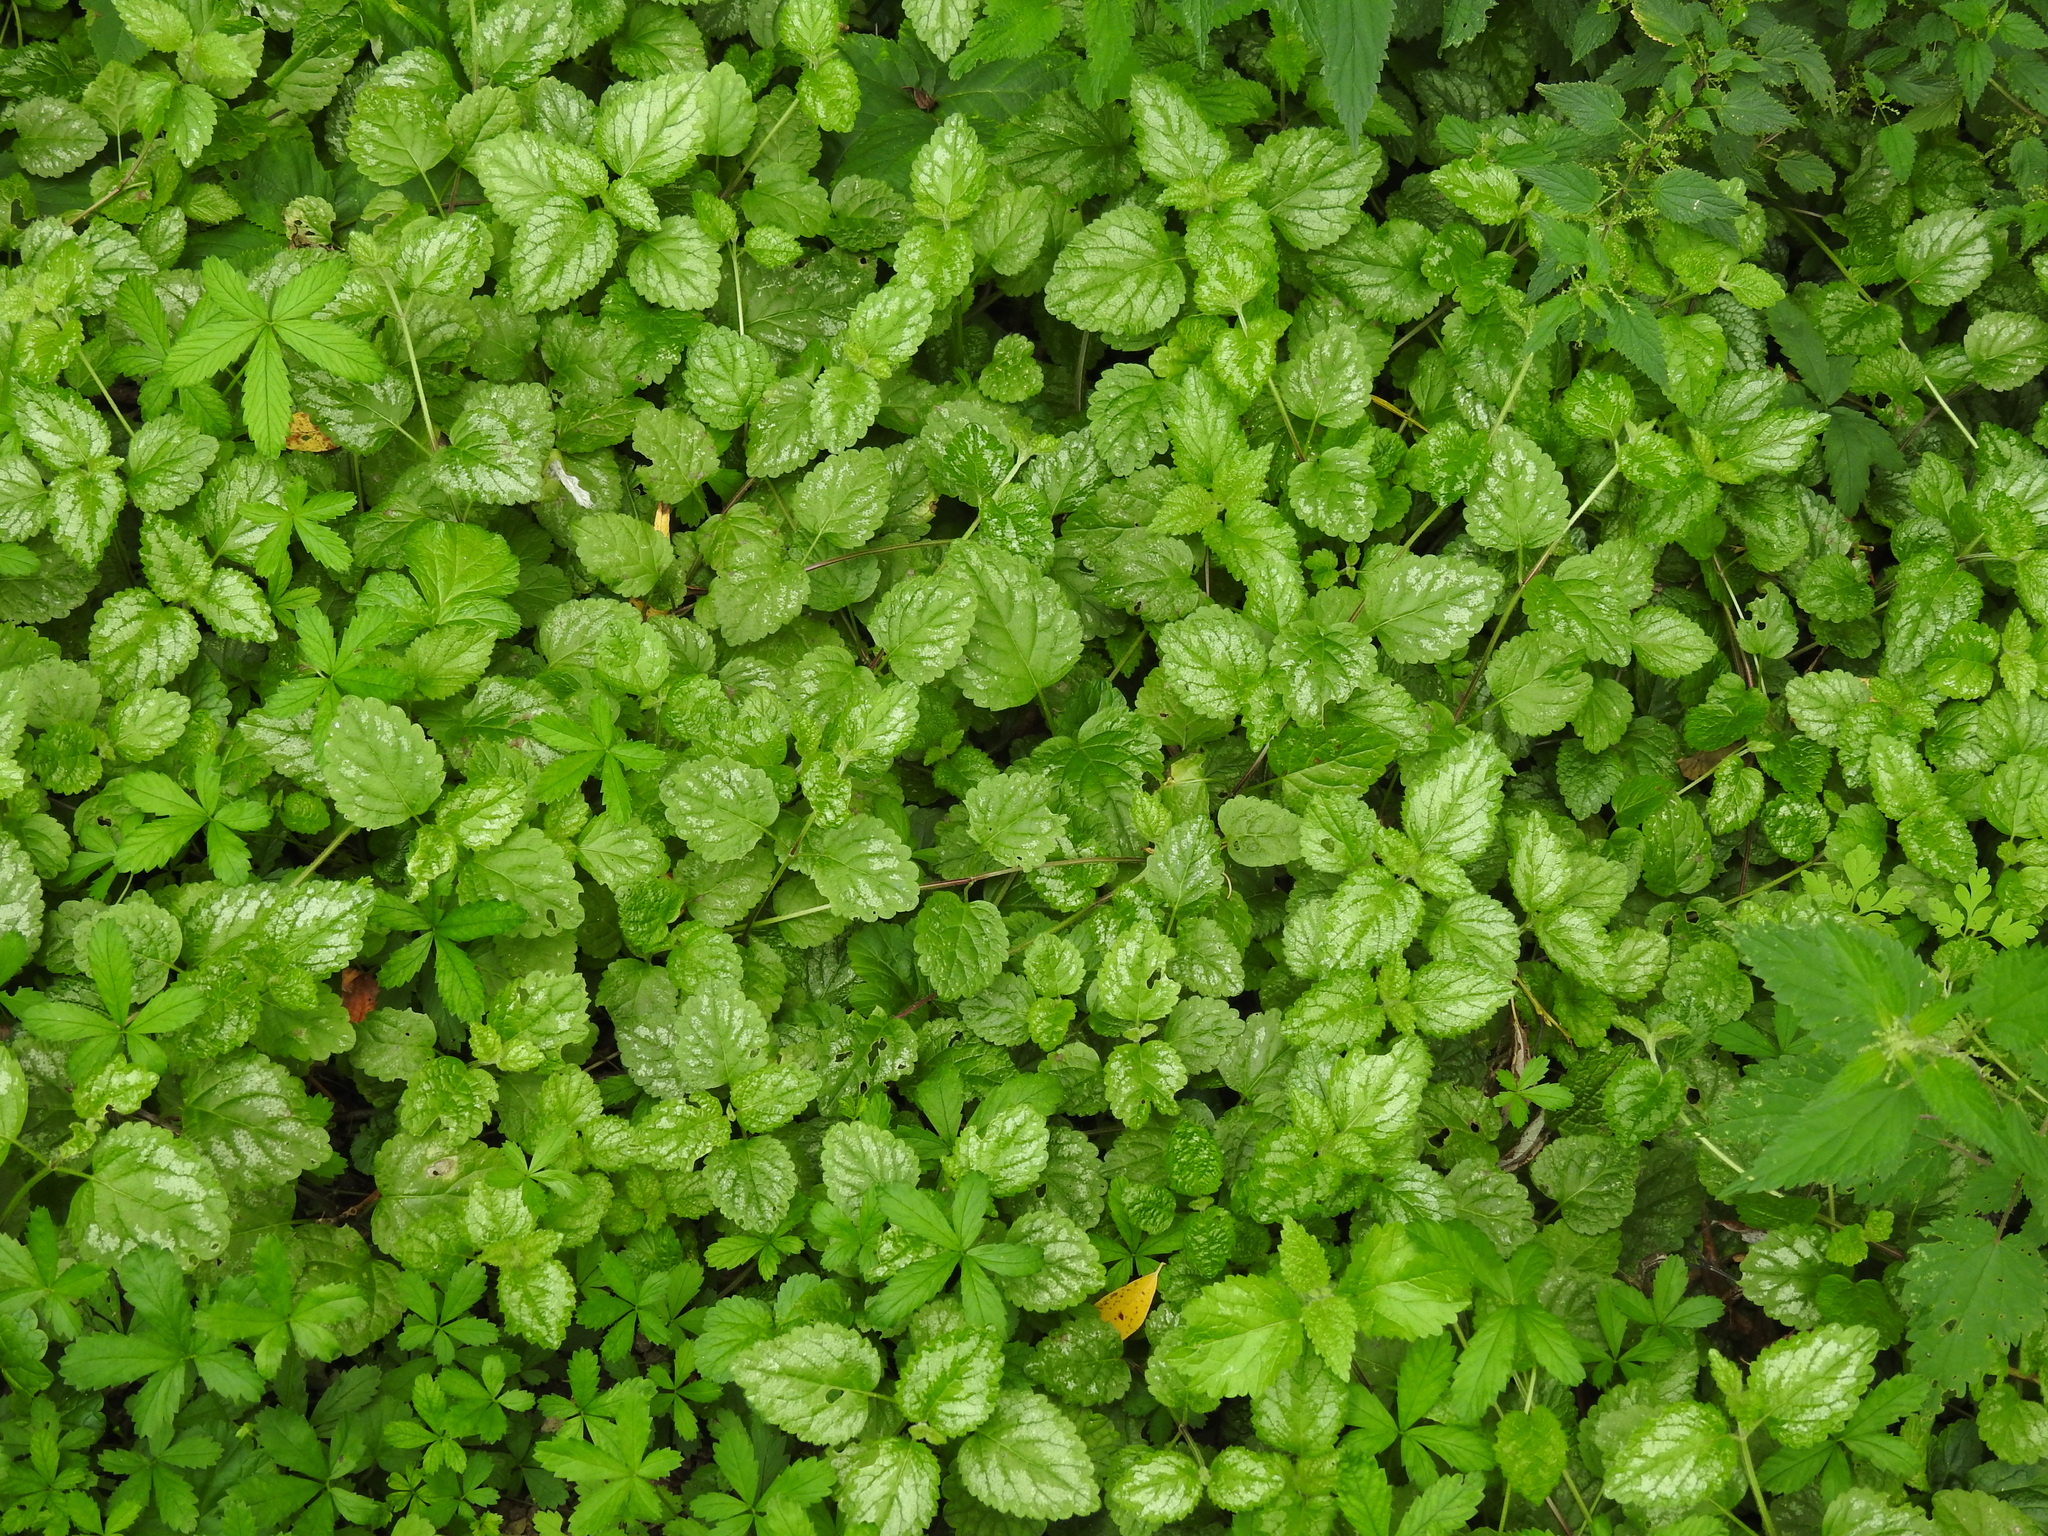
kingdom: Plantae
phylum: Tracheophyta
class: Magnoliopsida
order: Lamiales
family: Lamiaceae
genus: Lamium
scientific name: Lamium galeobdolon
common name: Yellow archangel
